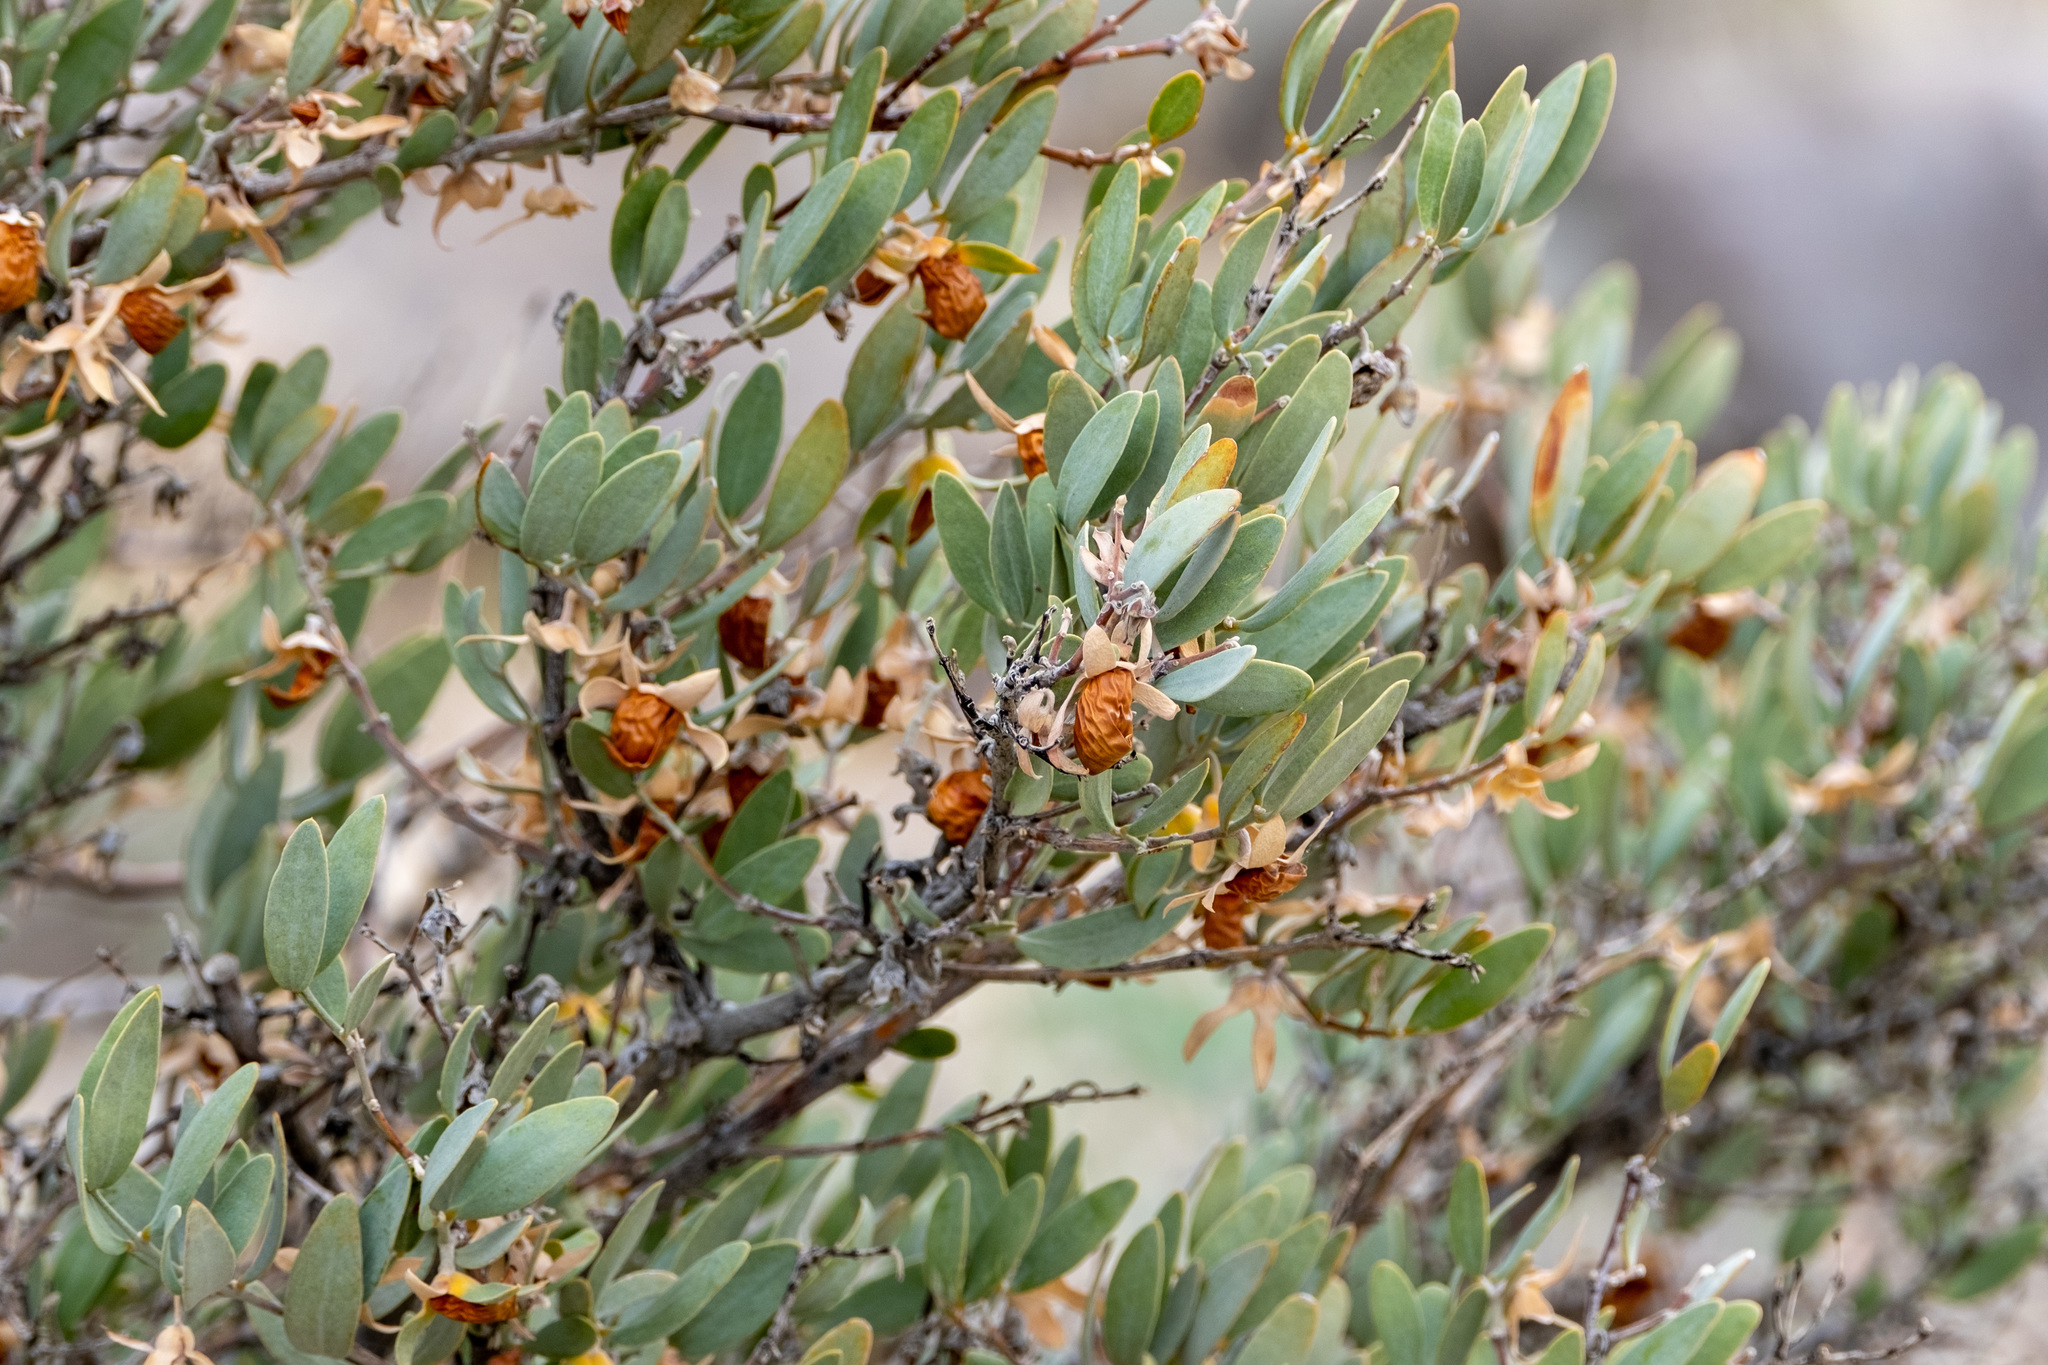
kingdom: Plantae
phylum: Tracheophyta
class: Magnoliopsida
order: Caryophyllales
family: Simmondsiaceae
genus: Simmondsia
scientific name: Simmondsia chinensis
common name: Jojoba
